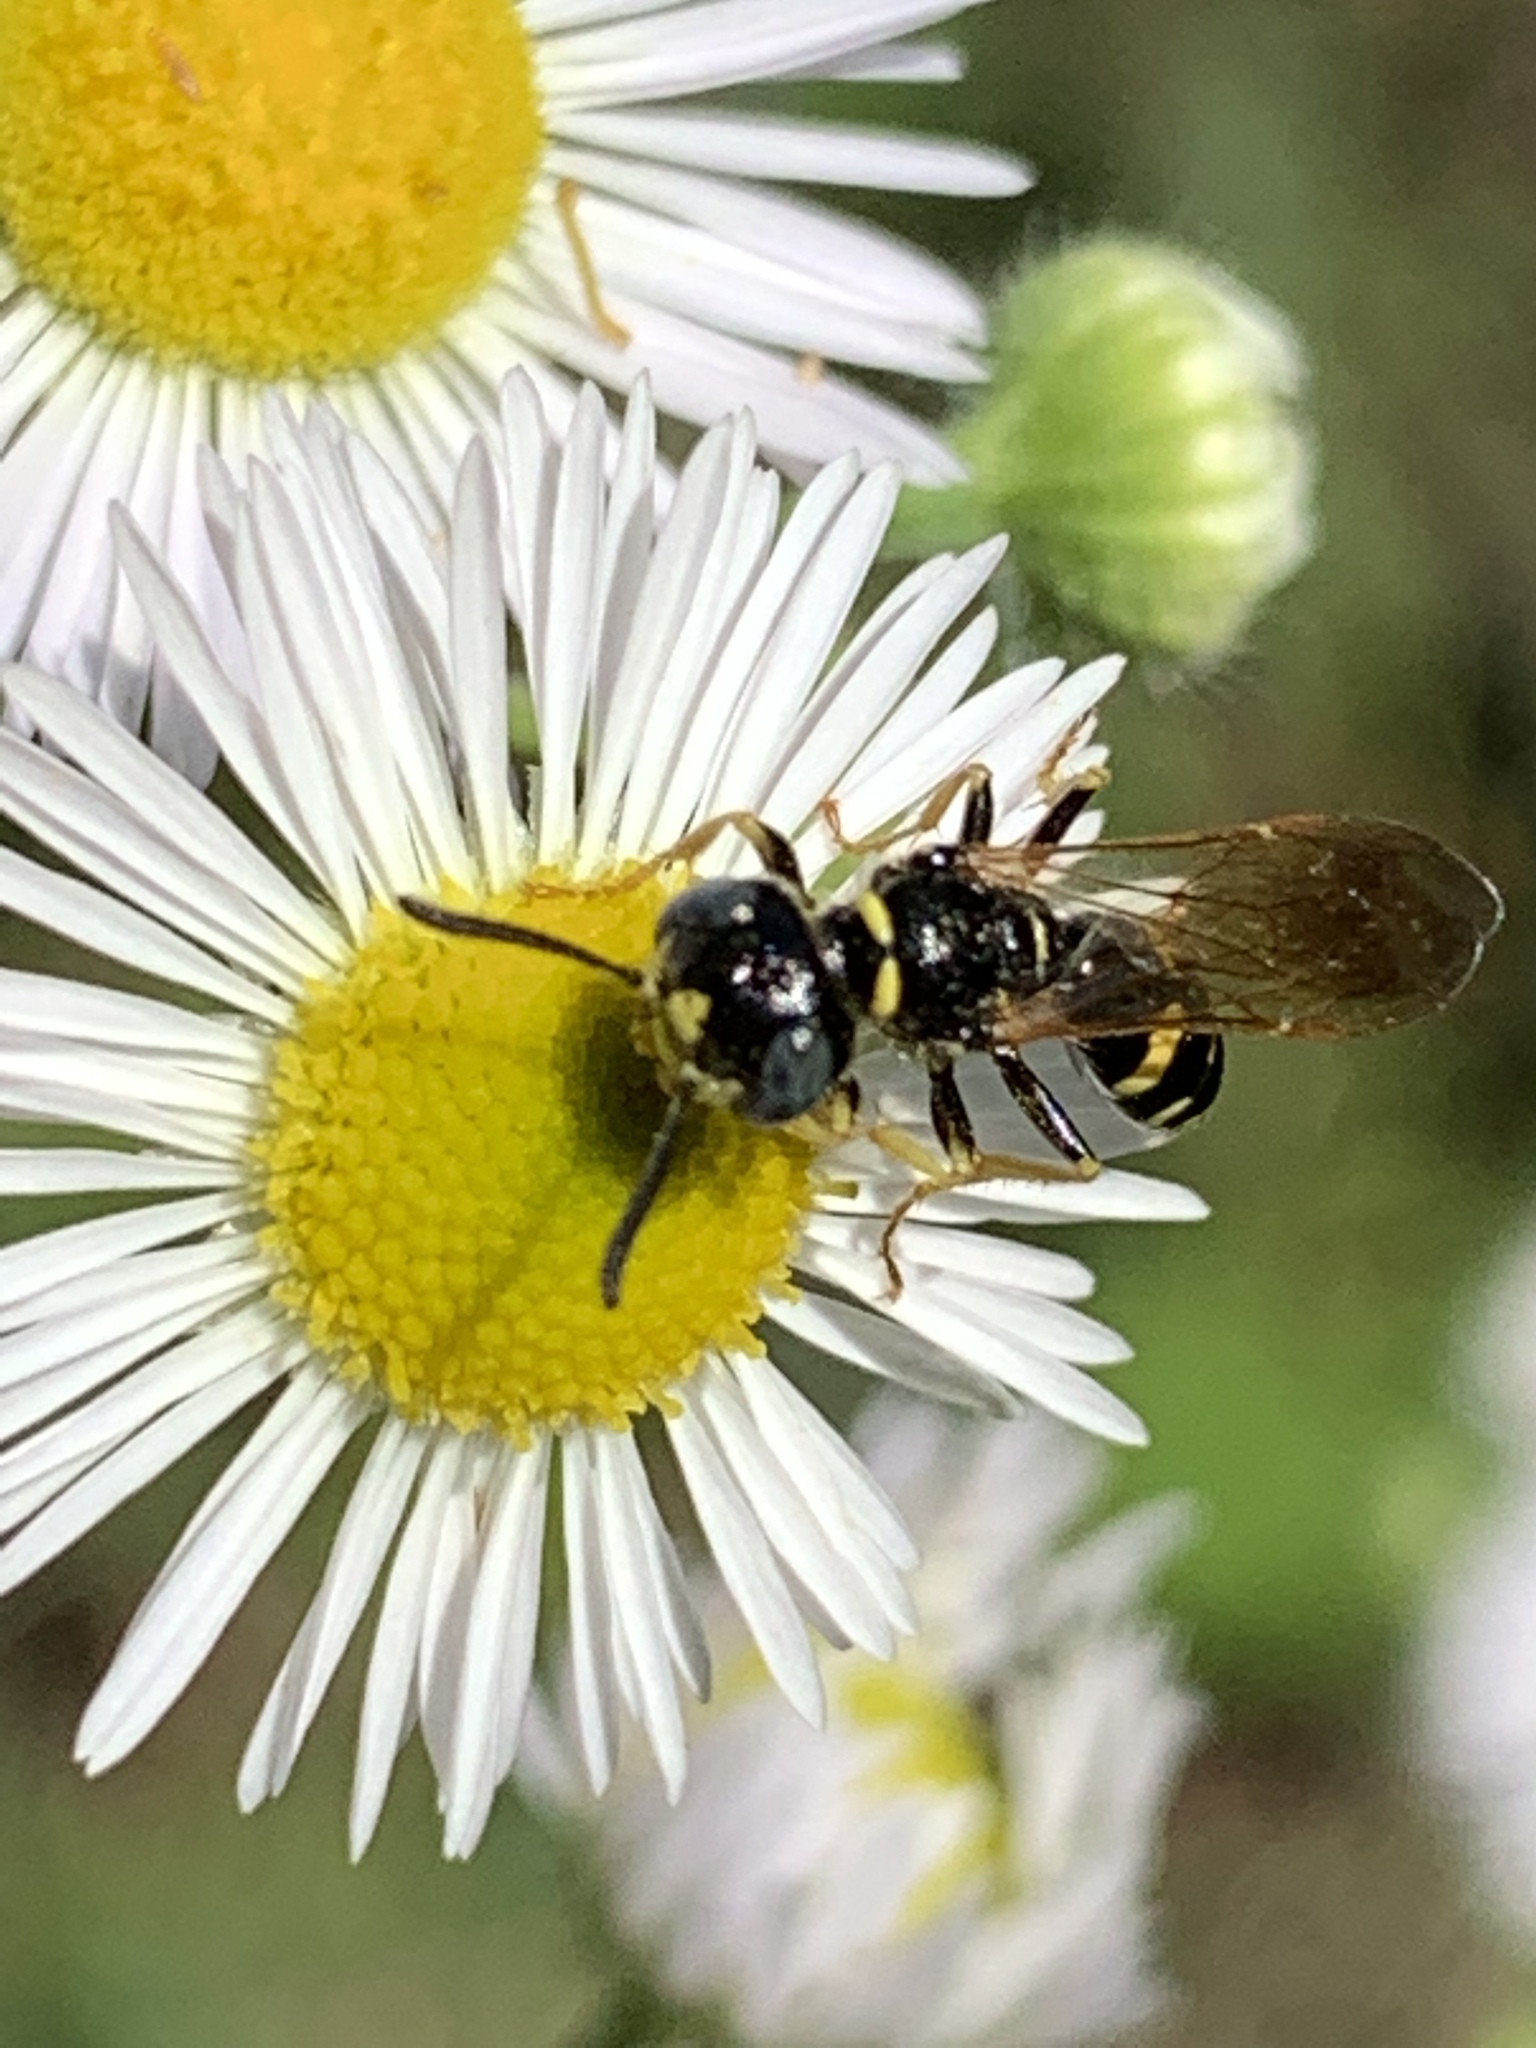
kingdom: Animalia
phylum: Arthropoda
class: Insecta
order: Hymenoptera
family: Crabronidae
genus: Philanthus
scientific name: Philanthus bilunatus
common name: Two moons beewolf
